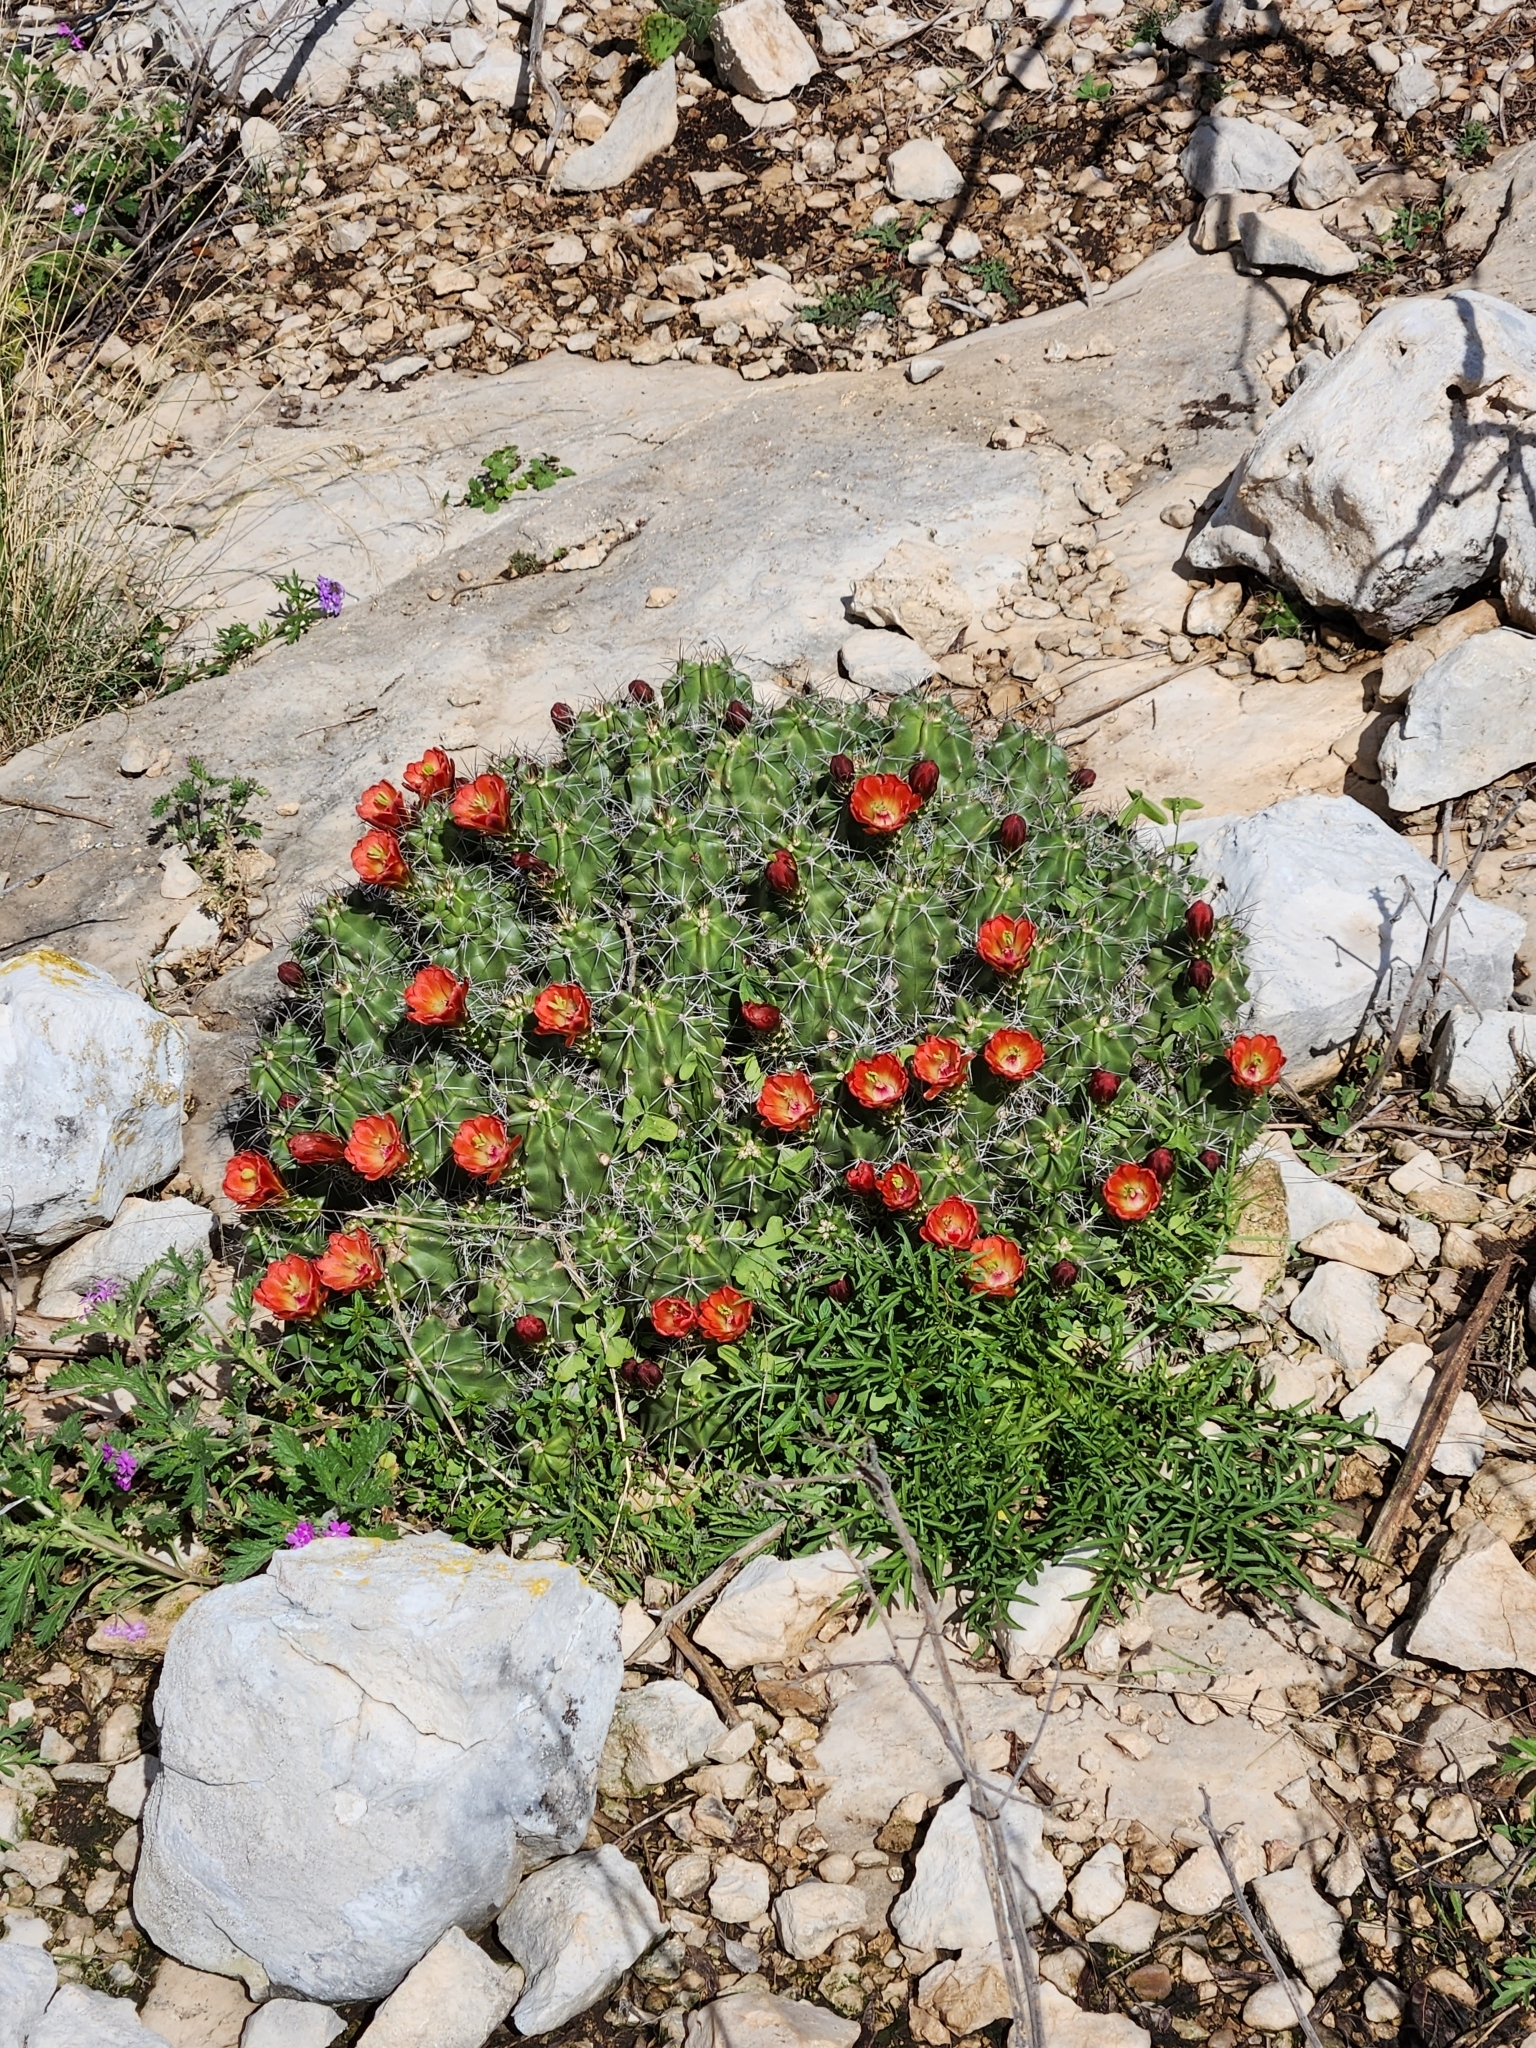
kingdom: Plantae
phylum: Tracheophyta
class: Magnoliopsida
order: Caryophyllales
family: Cactaceae
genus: Echinocereus
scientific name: Echinocereus coccineus
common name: Scarlet hedgehog cactus
